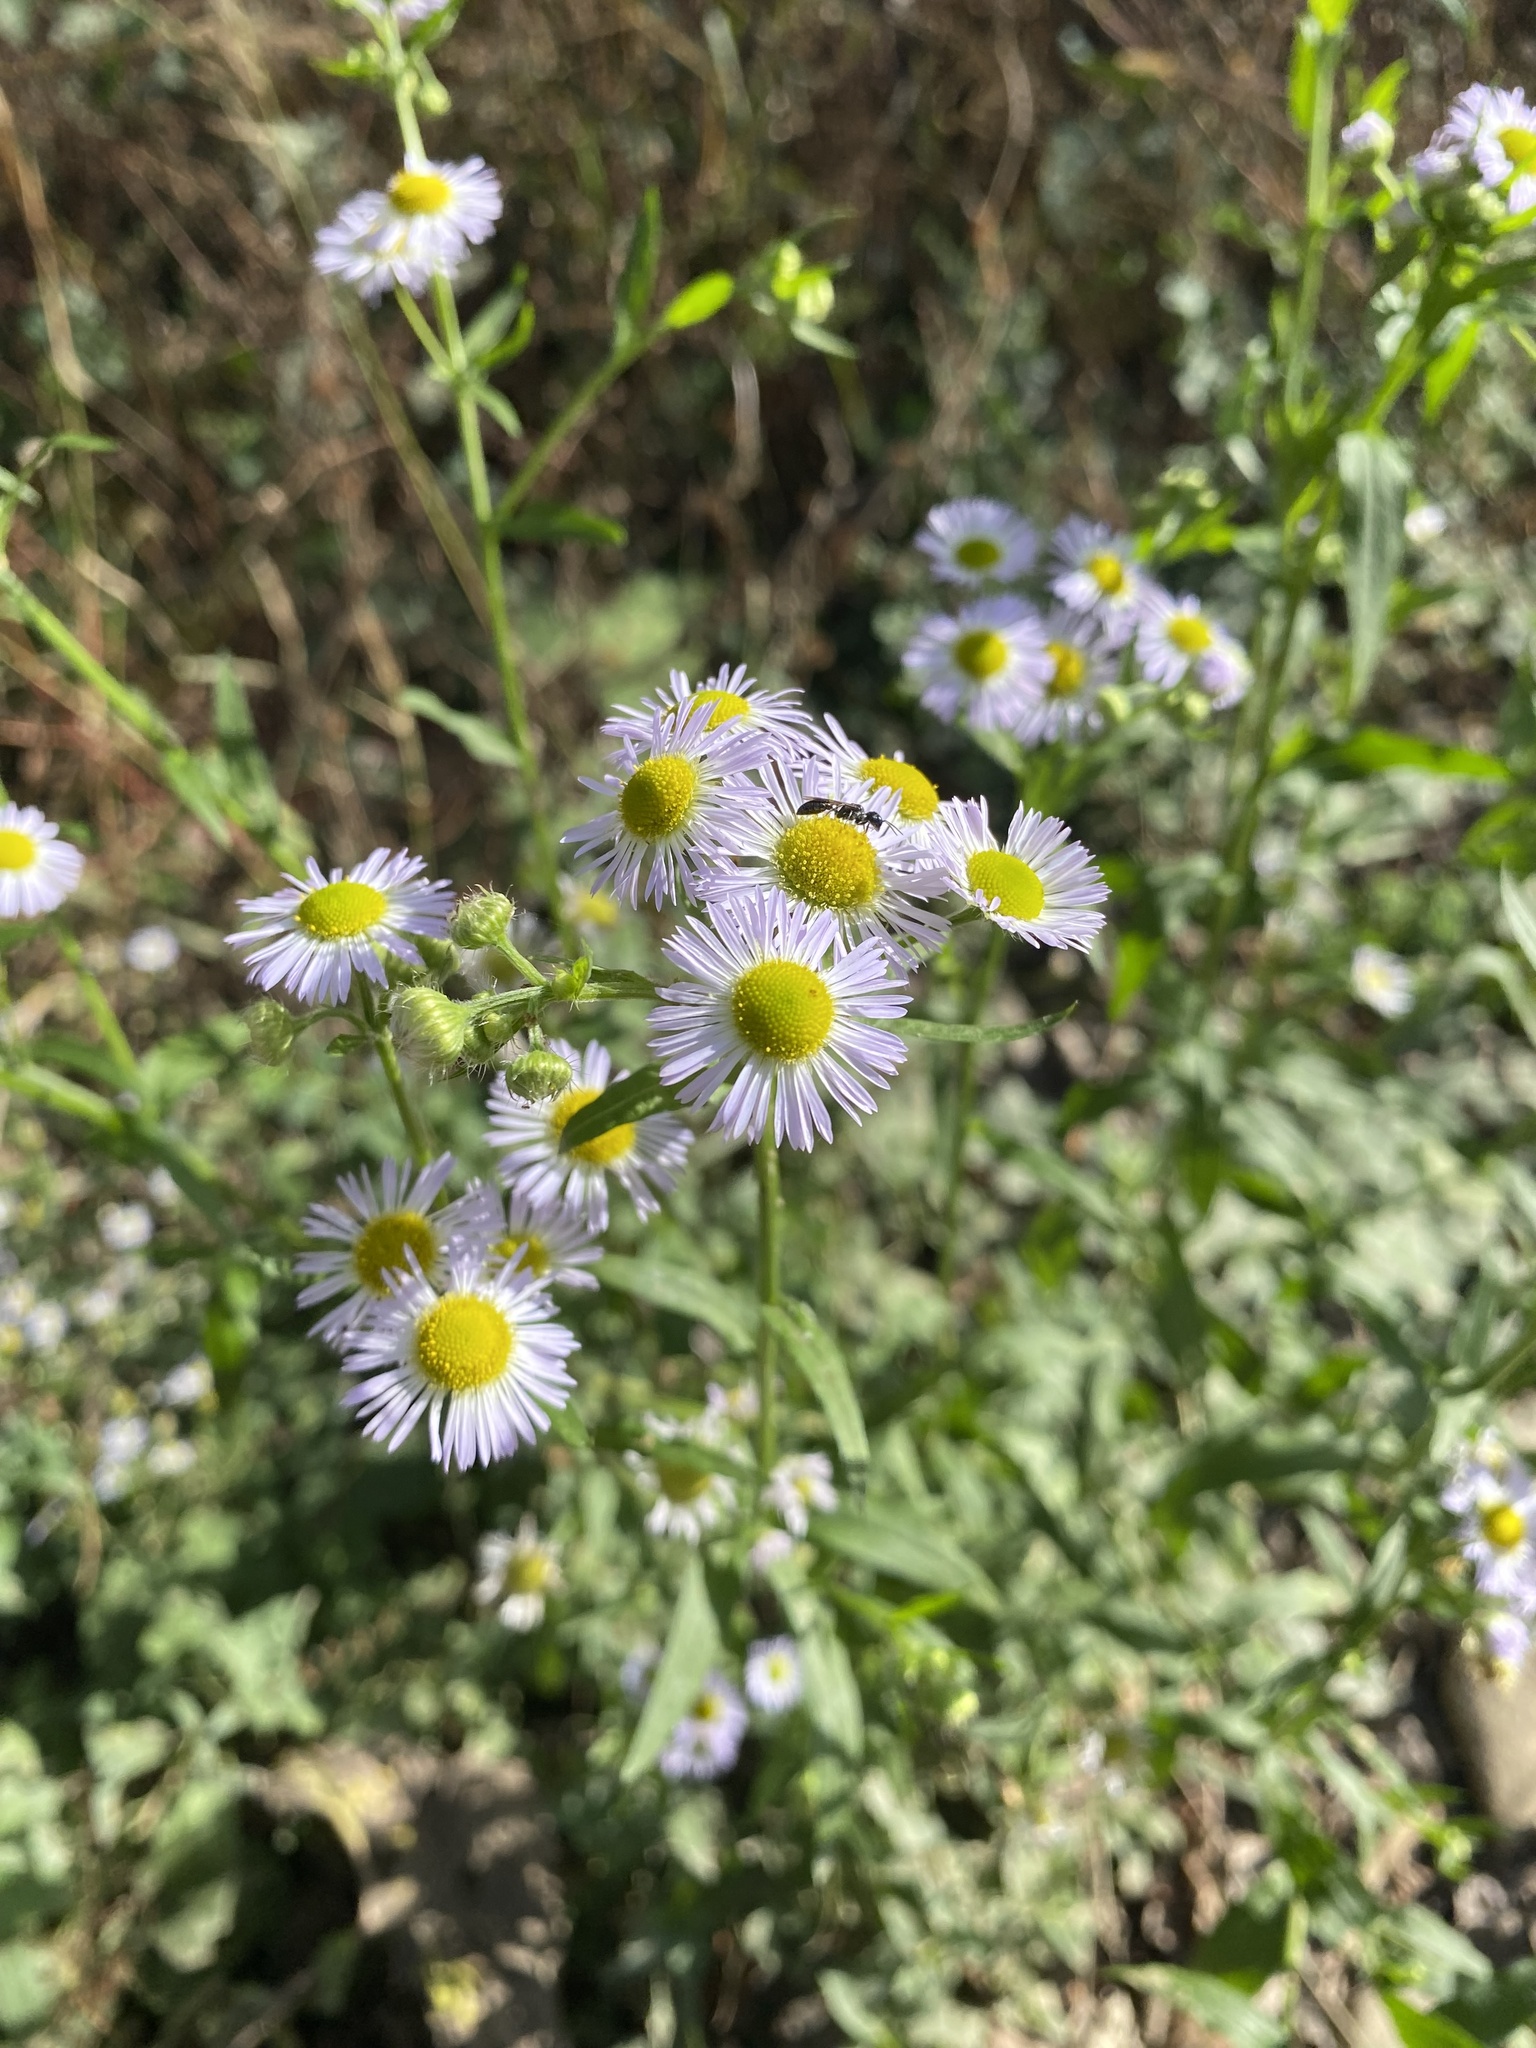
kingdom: Plantae
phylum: Tracheophyta
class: Magnoliopsida
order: Asterales
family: Asteraceae
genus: Erigeron
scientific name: Erigeron annuus
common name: Tall fleabane
